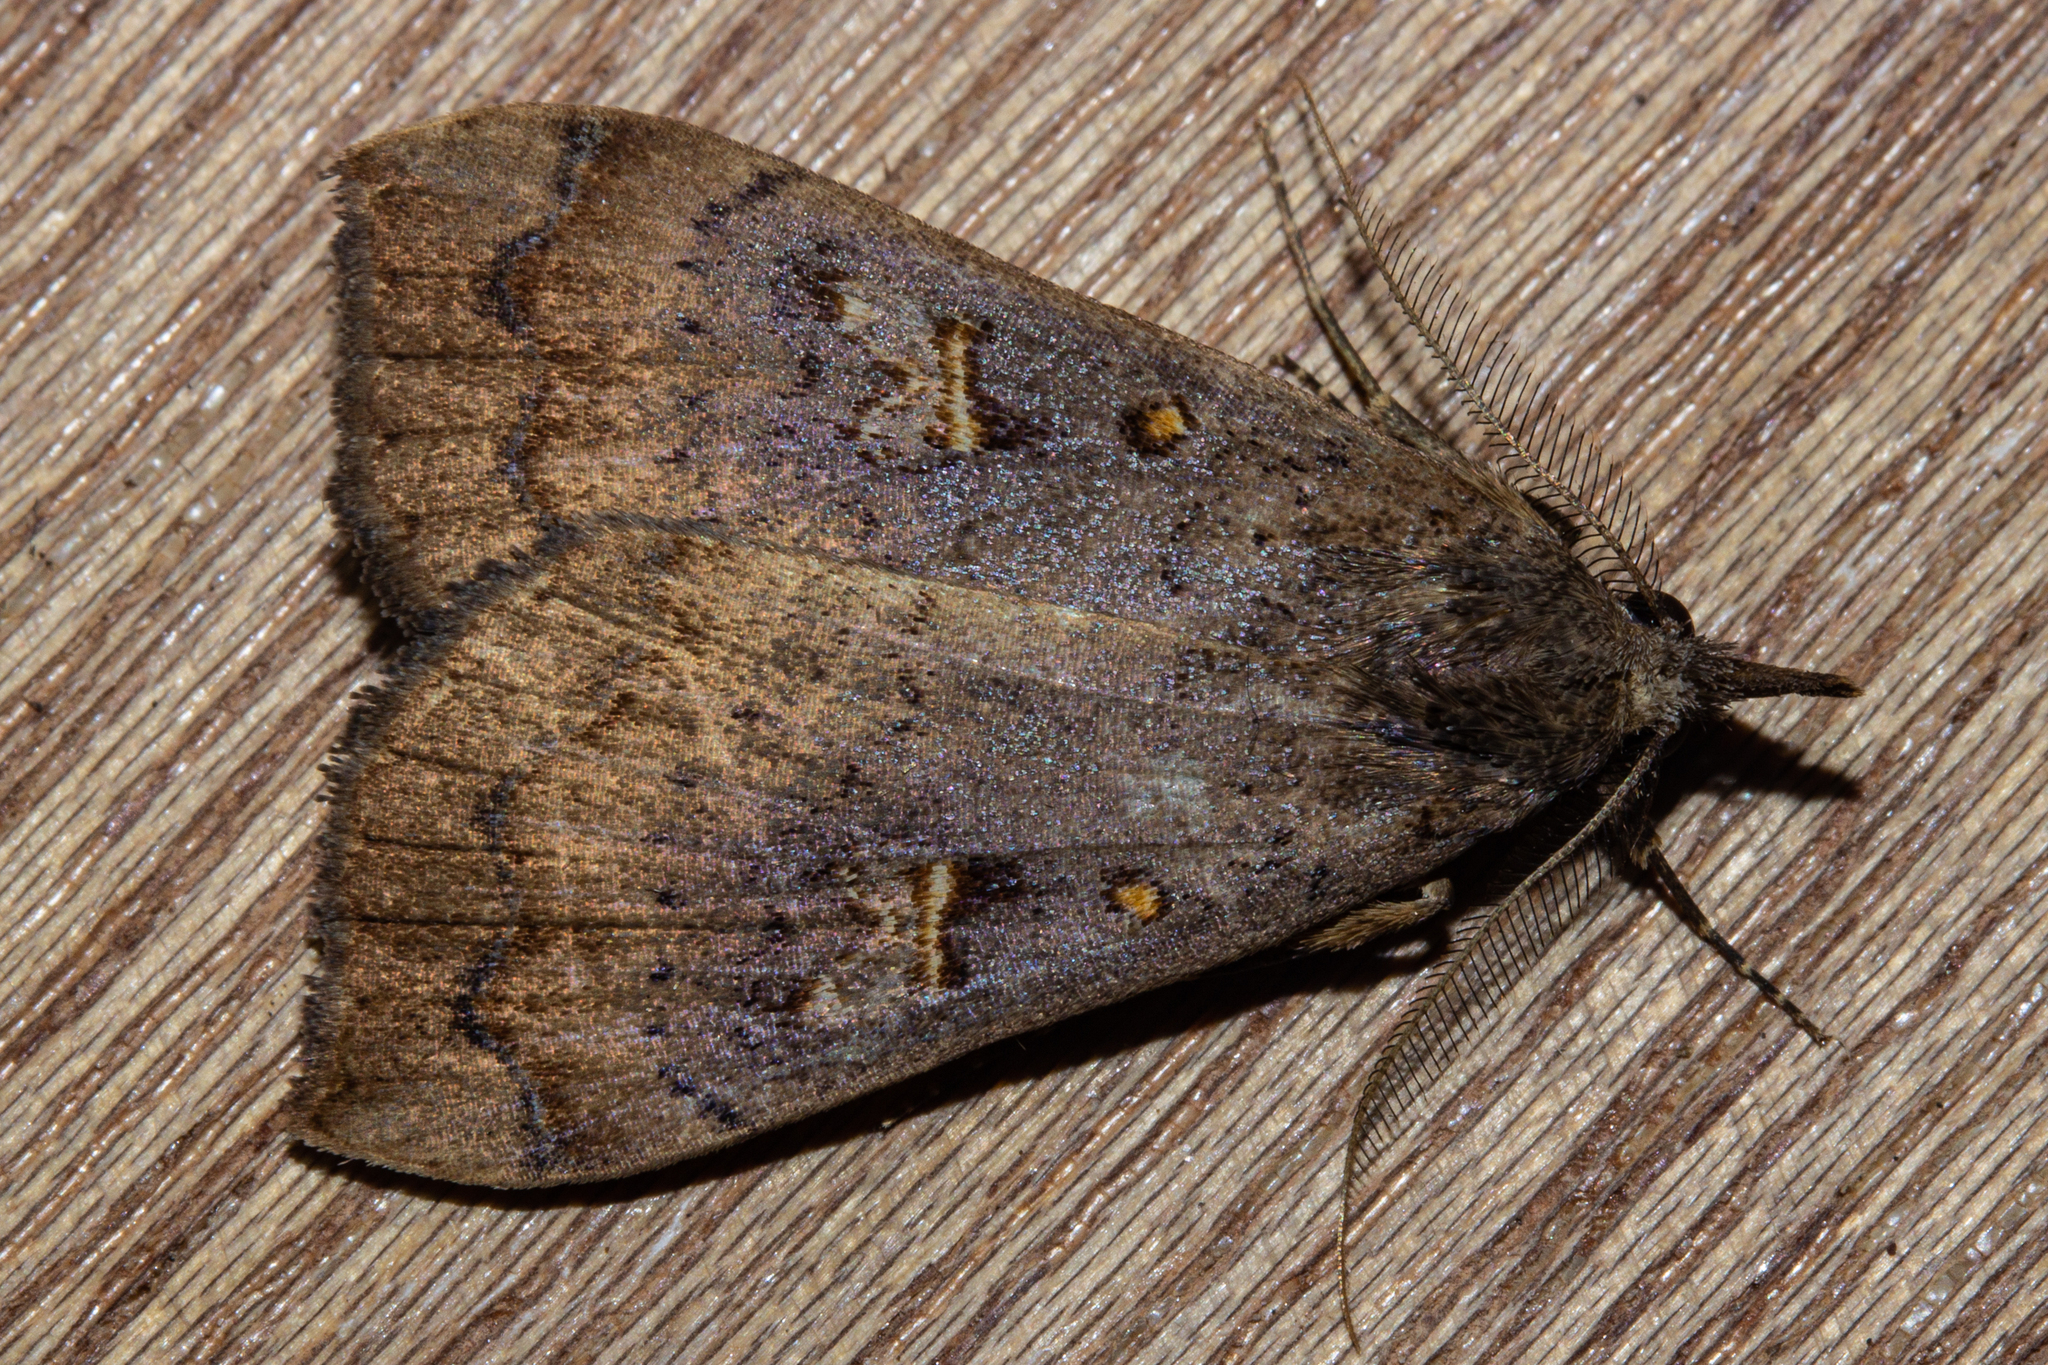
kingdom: Animalia
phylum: Arthropoda
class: Insecta
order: Lepidoptera
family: Erebidae
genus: Rhapsa
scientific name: Rhapsa scotosialis
